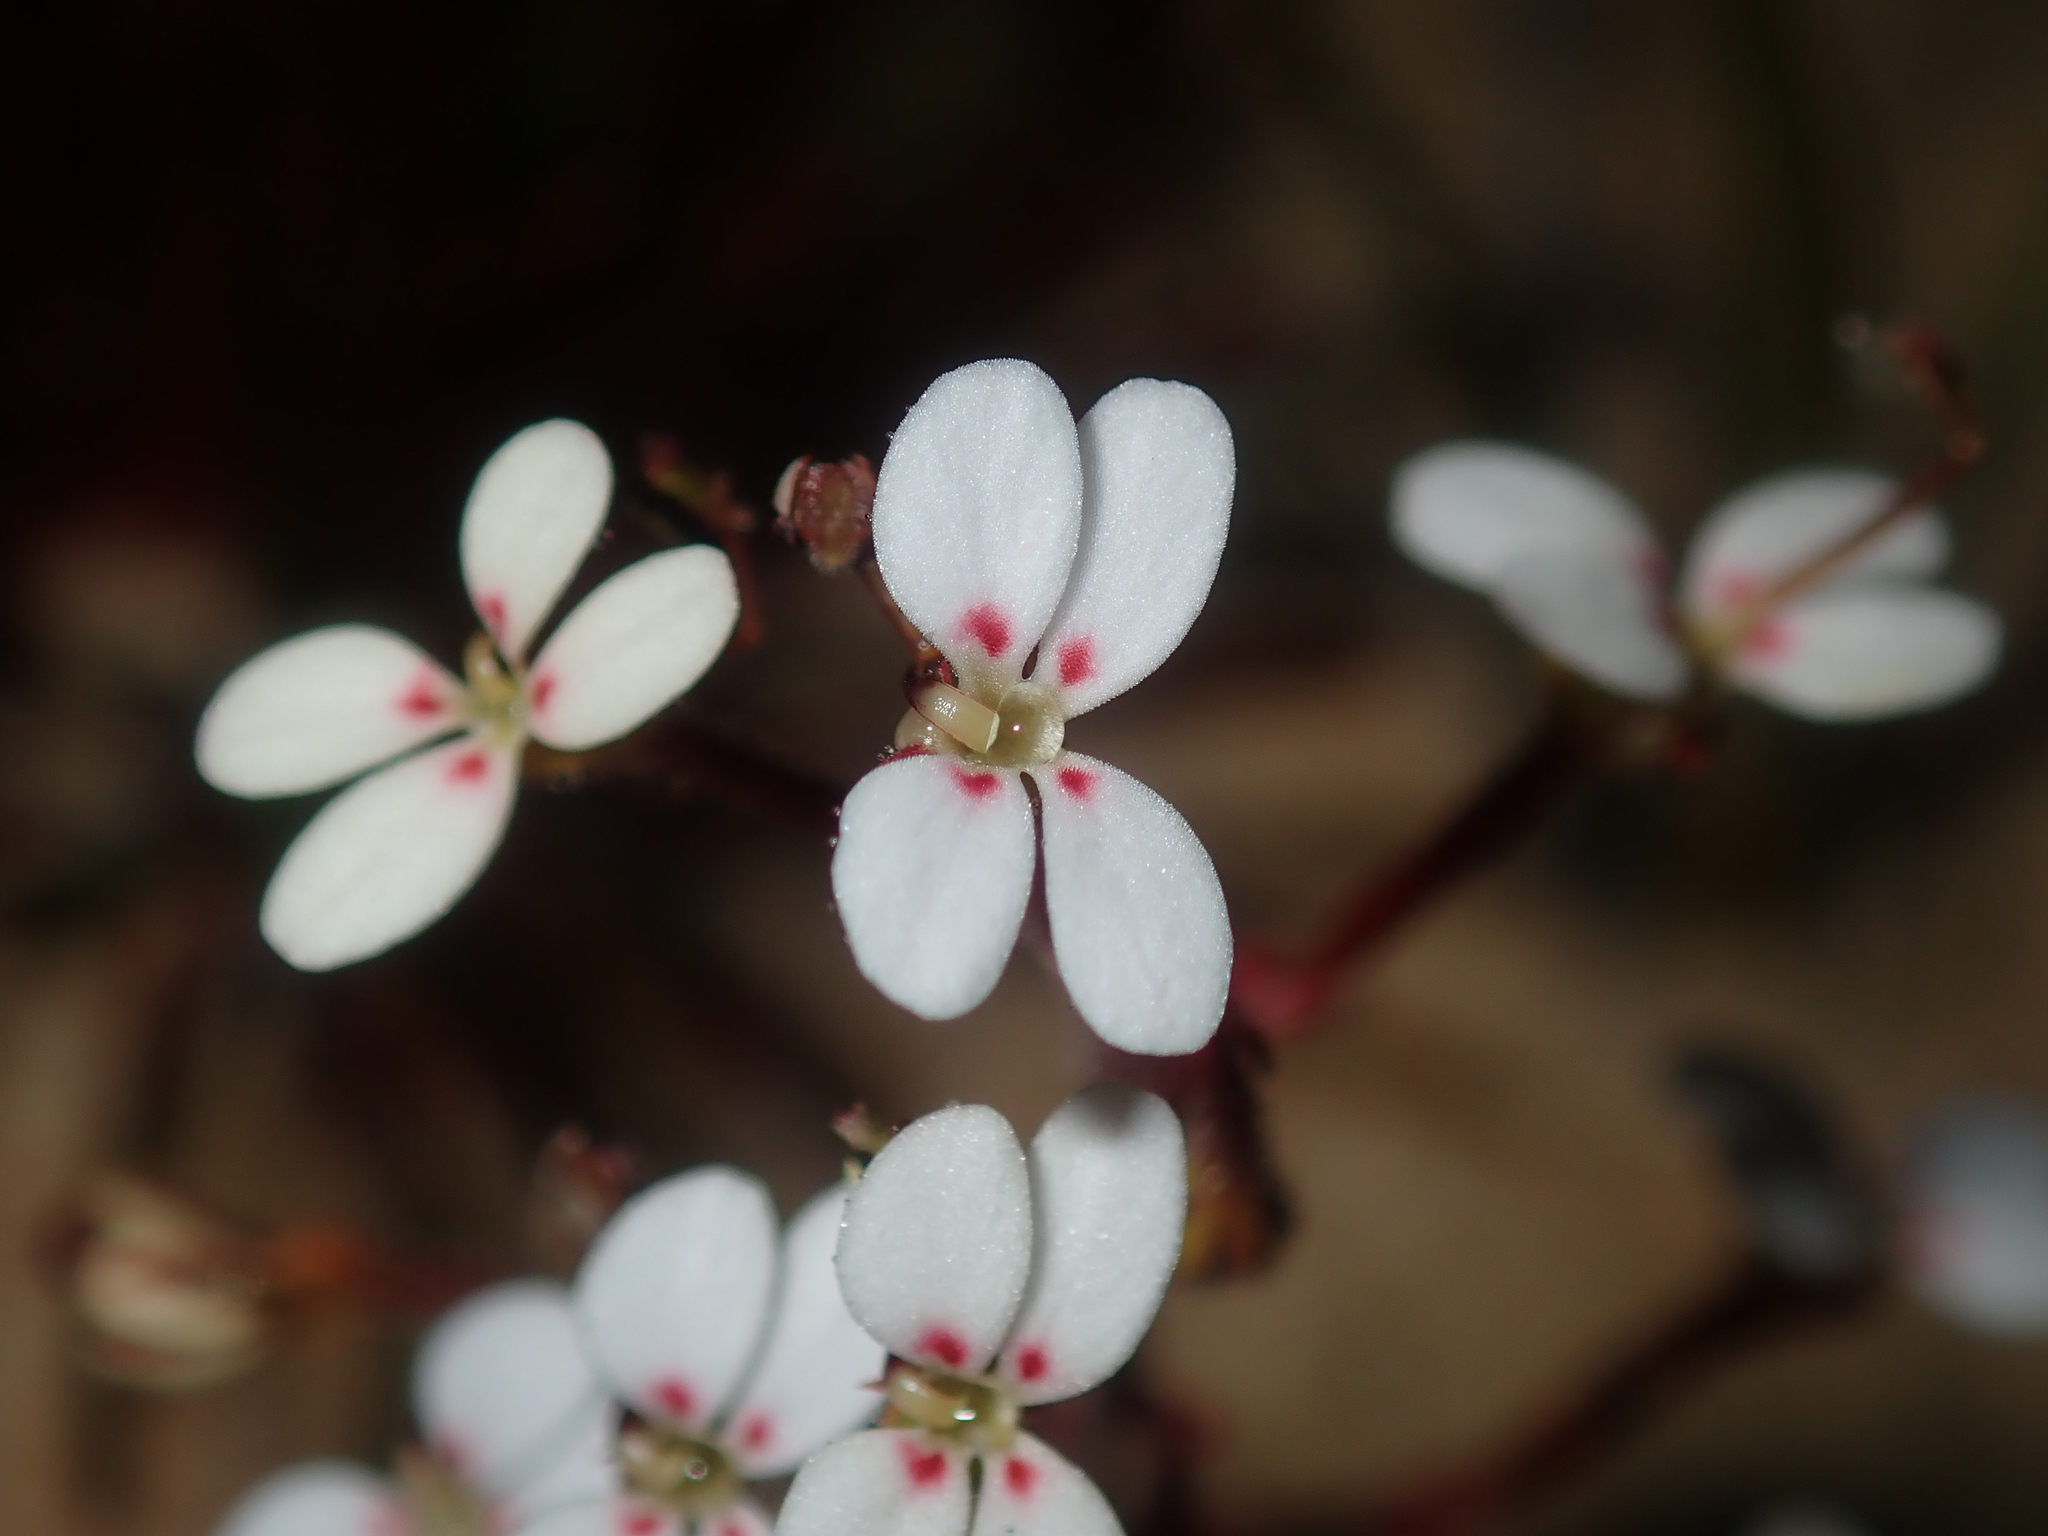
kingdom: Plantae
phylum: Tracheophyta
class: Magnoliopsida
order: Asterales
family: Stylidiaceae
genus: Stylidium
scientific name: Stylidium kalbarriense
